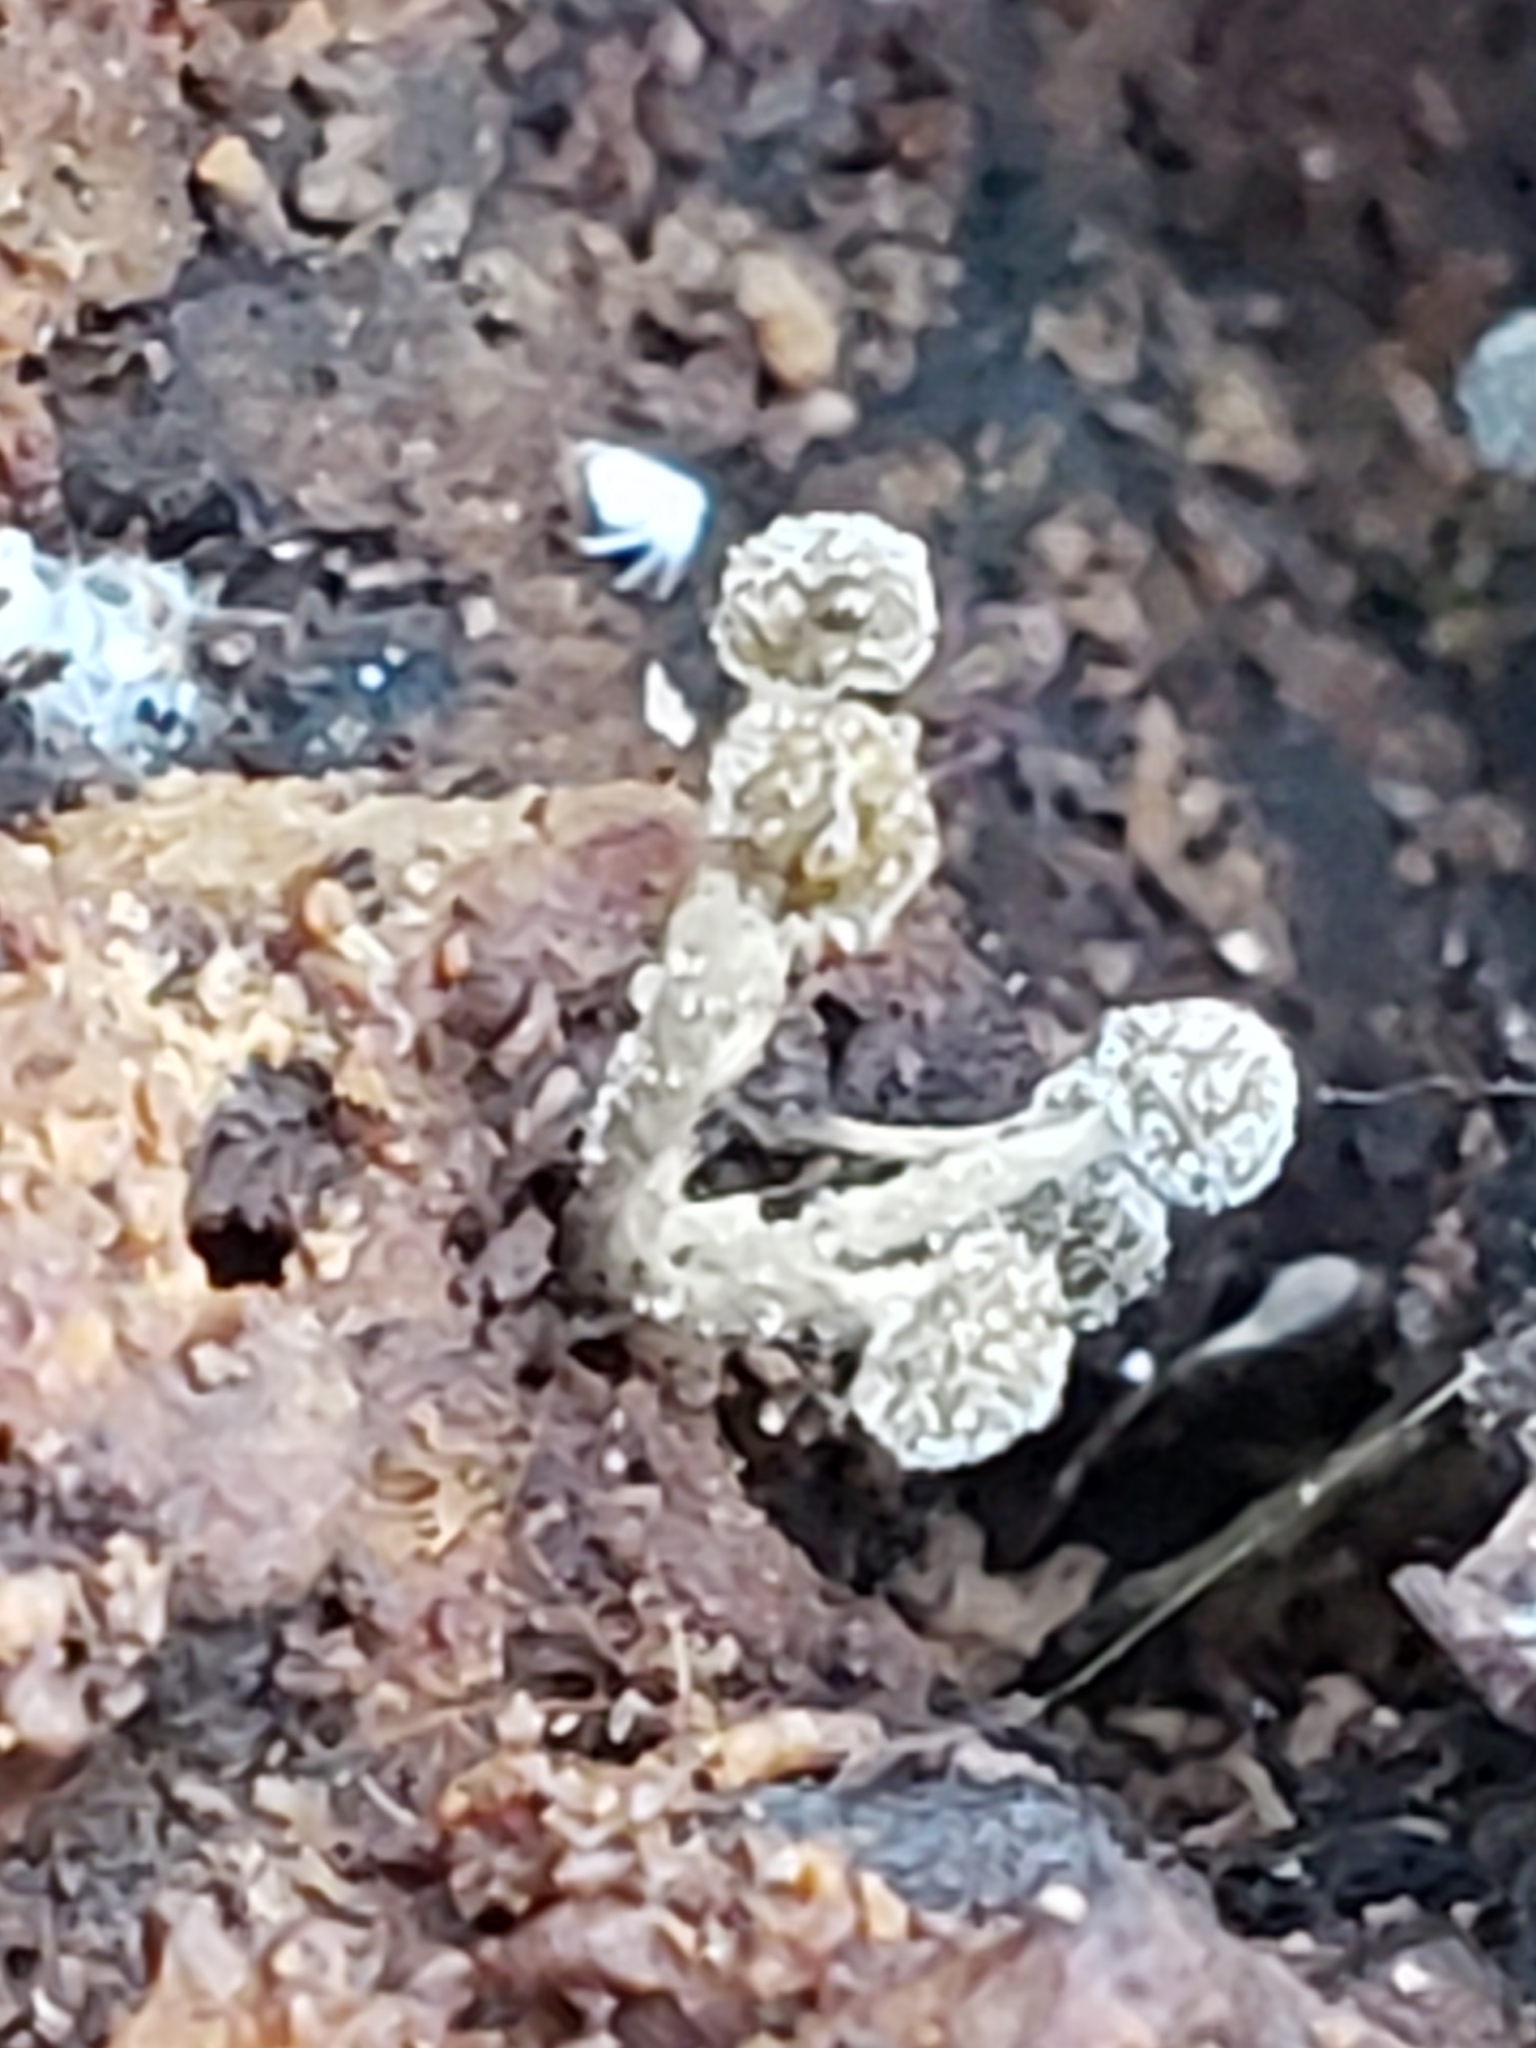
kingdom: Fungi
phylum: Basidiomycota
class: Atractiellomycetes
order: Atractiellales
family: Phleogenaceae
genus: Phleogena
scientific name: Phleogena faginea
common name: Fenugreek stalkball
